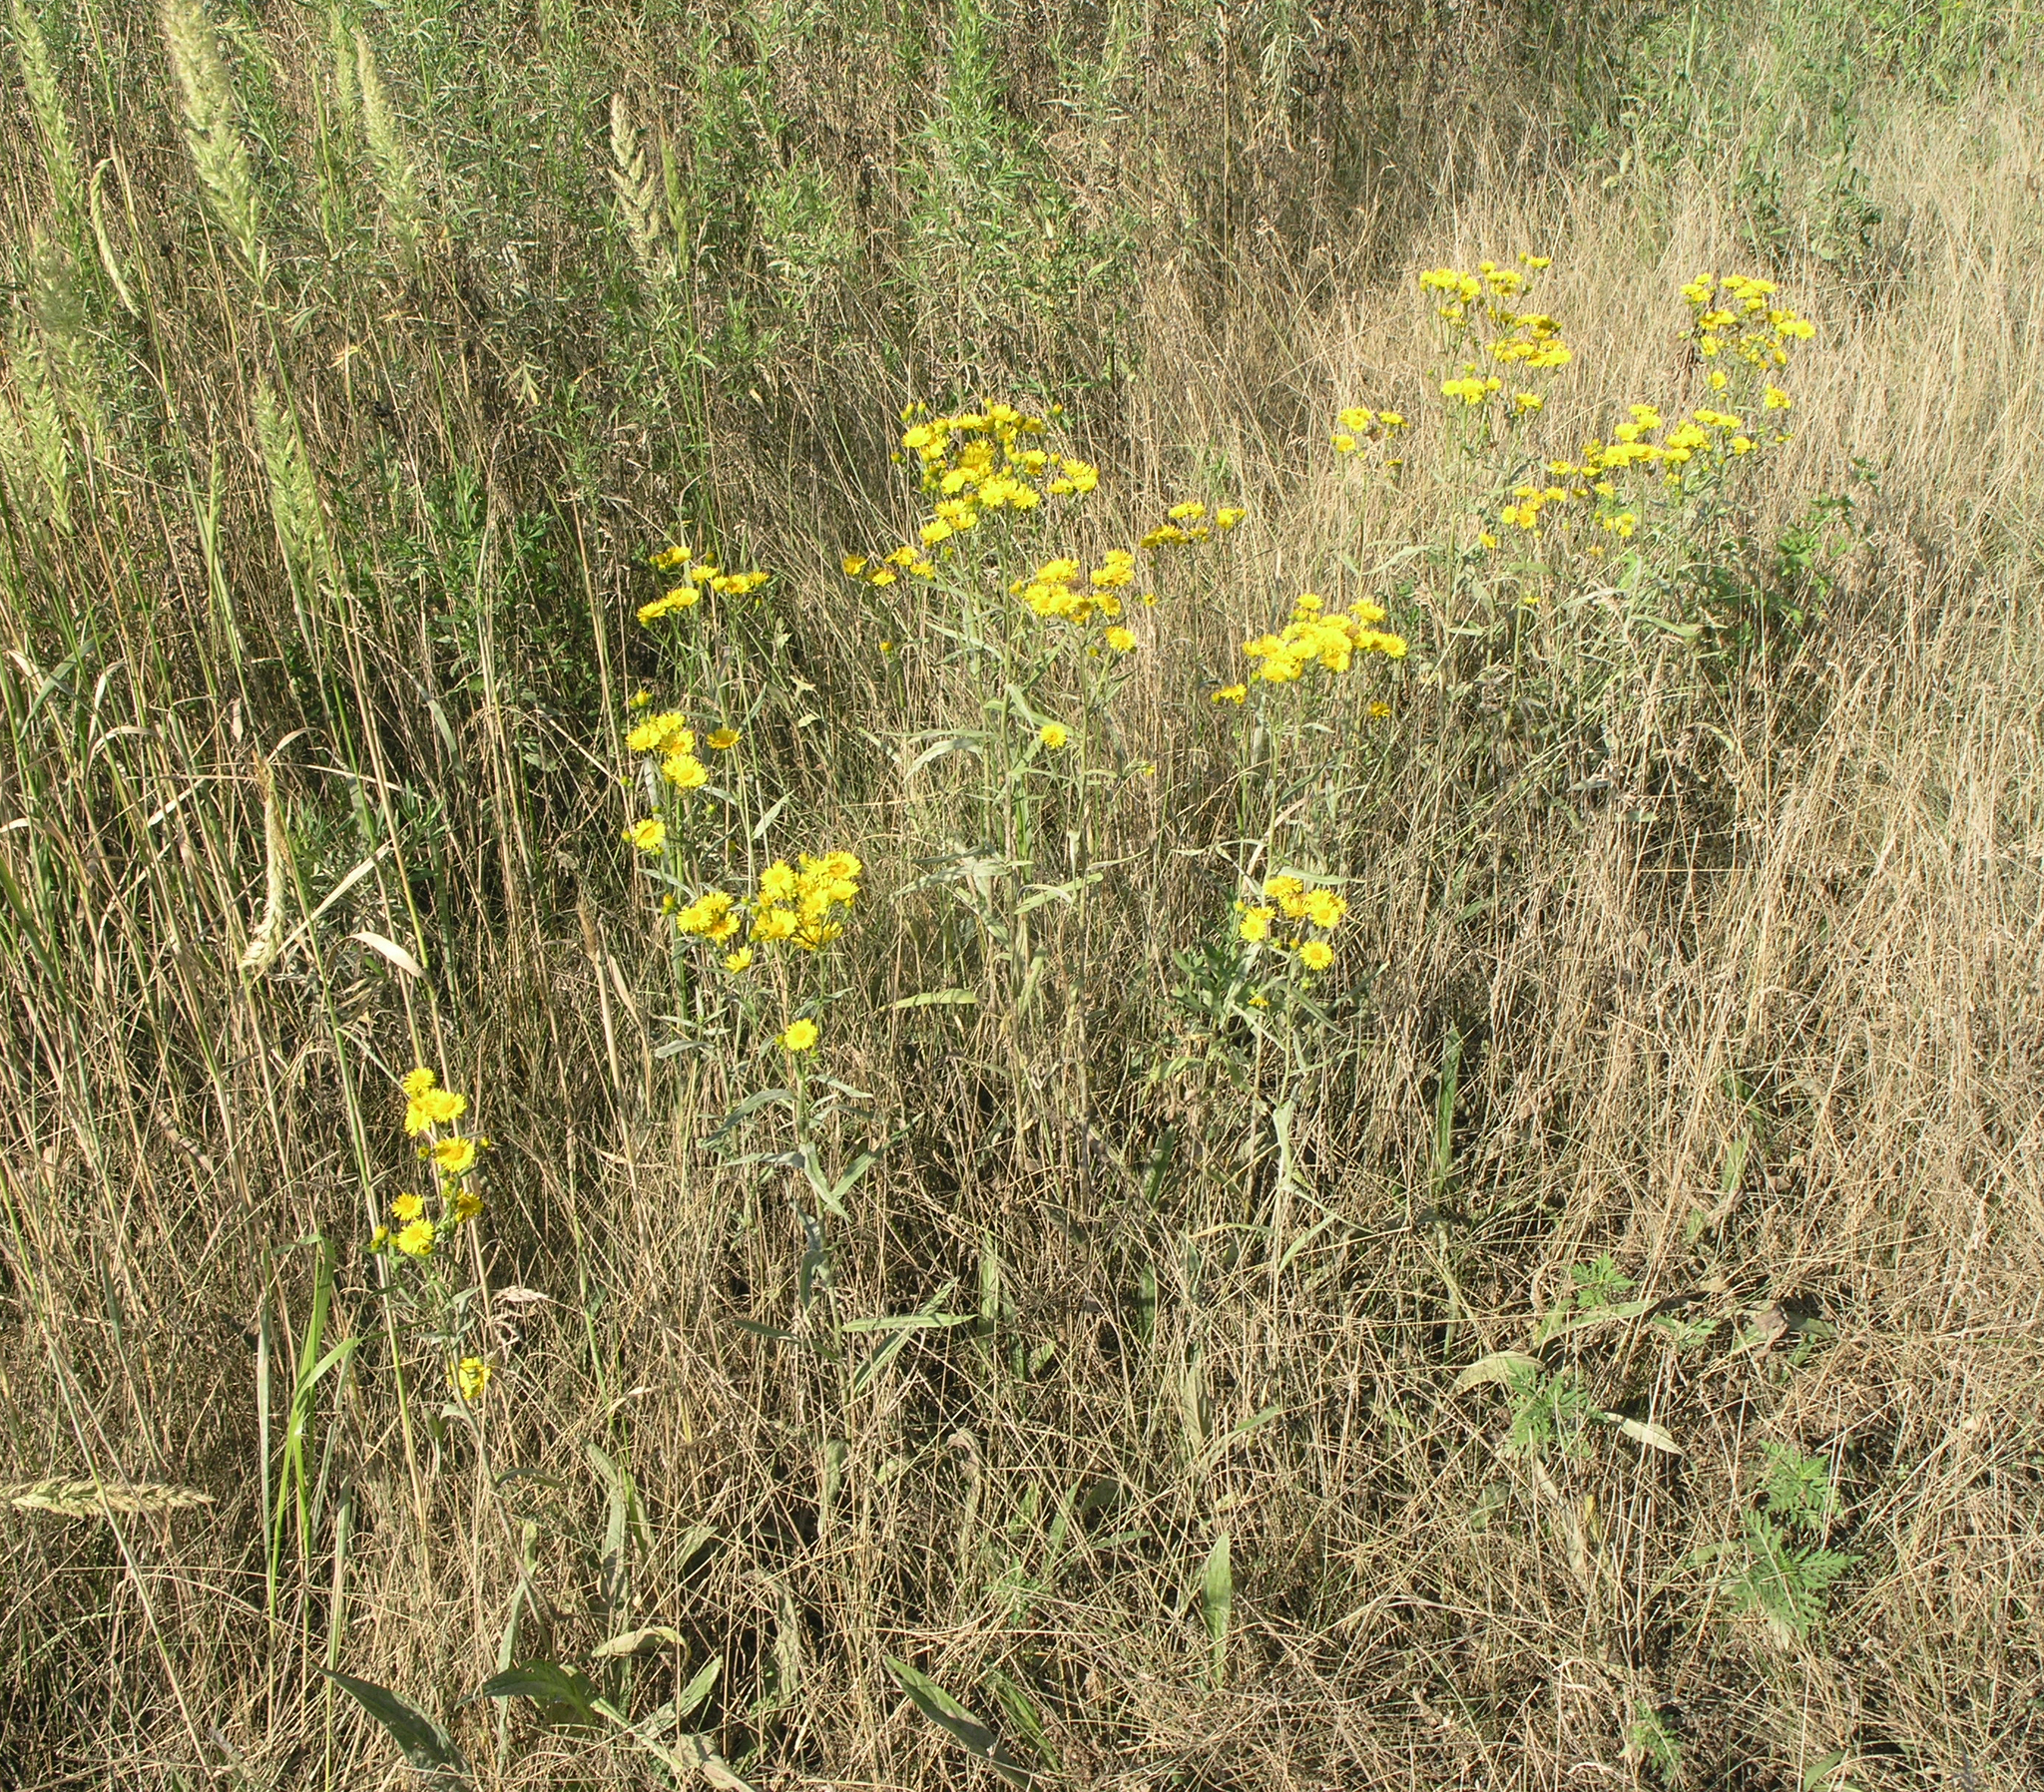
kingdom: Plantae
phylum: Tracheophyta
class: Magnoliopsida
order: Asterales
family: Asteraceae
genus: Inula
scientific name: Inula linariifolia
